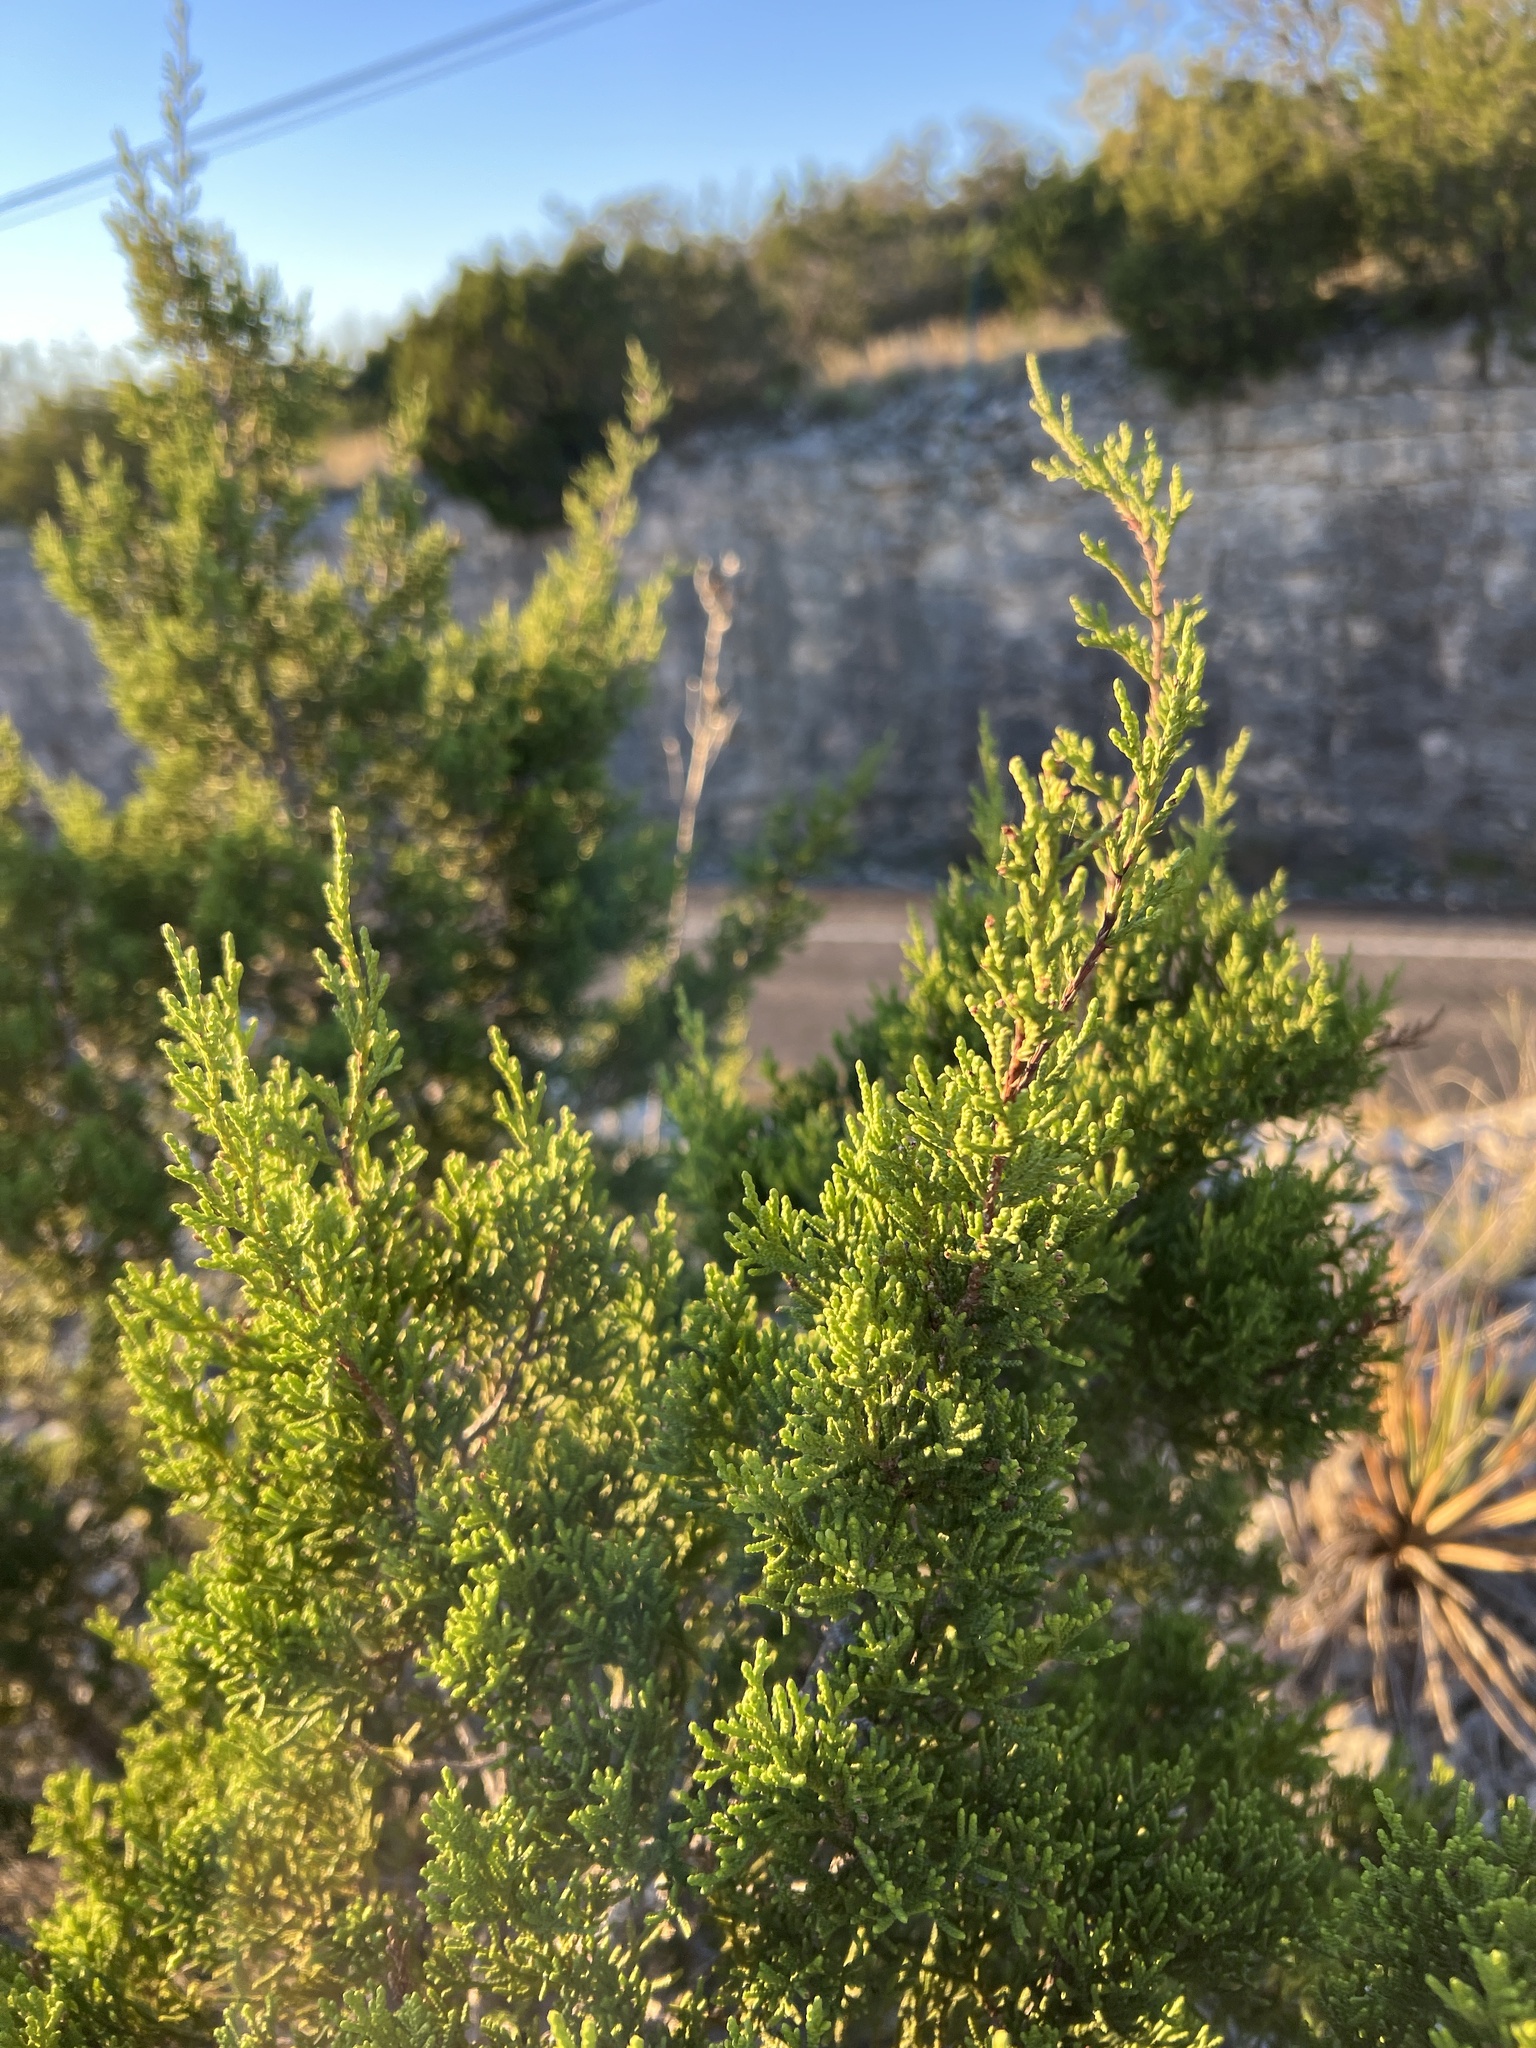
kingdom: Plantae
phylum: Tracheophyta
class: Pinopsida
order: Pinales
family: Cupressaceae
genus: Juniperus
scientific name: Juniperus ashei
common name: Mexican juniper
